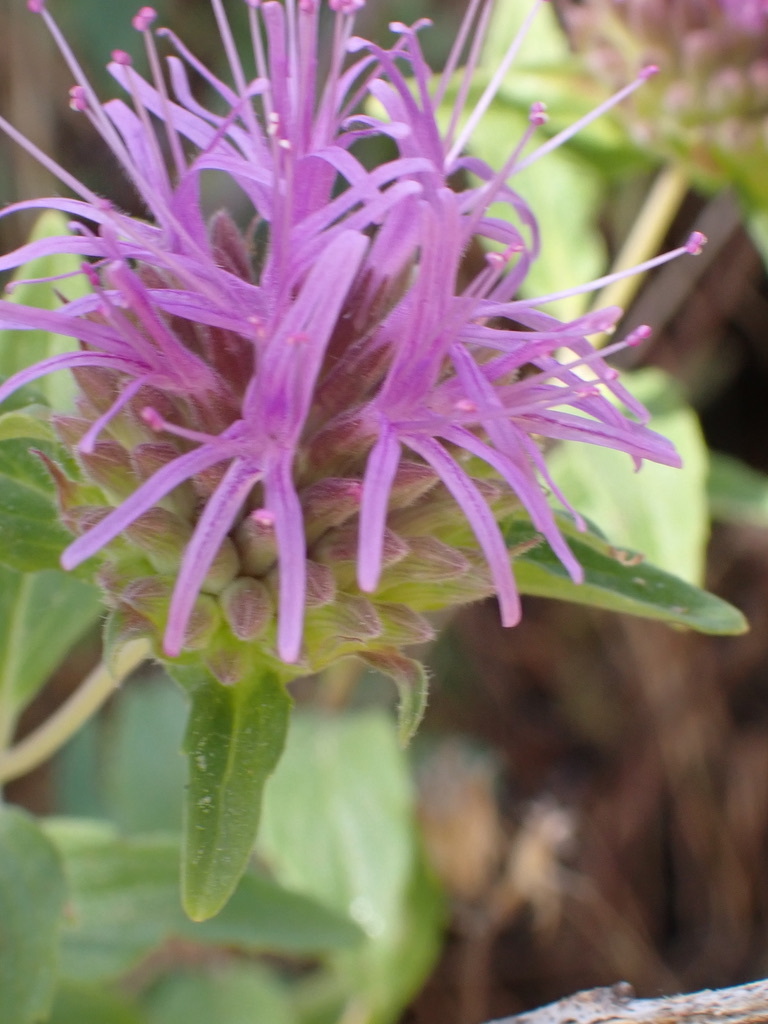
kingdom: Plantae
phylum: Tracheophyta
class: Magnoliopsida
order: Lamiales
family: Lamiaceae
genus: Monardella
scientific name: Monardella odoratissima
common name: Pacific monardella
